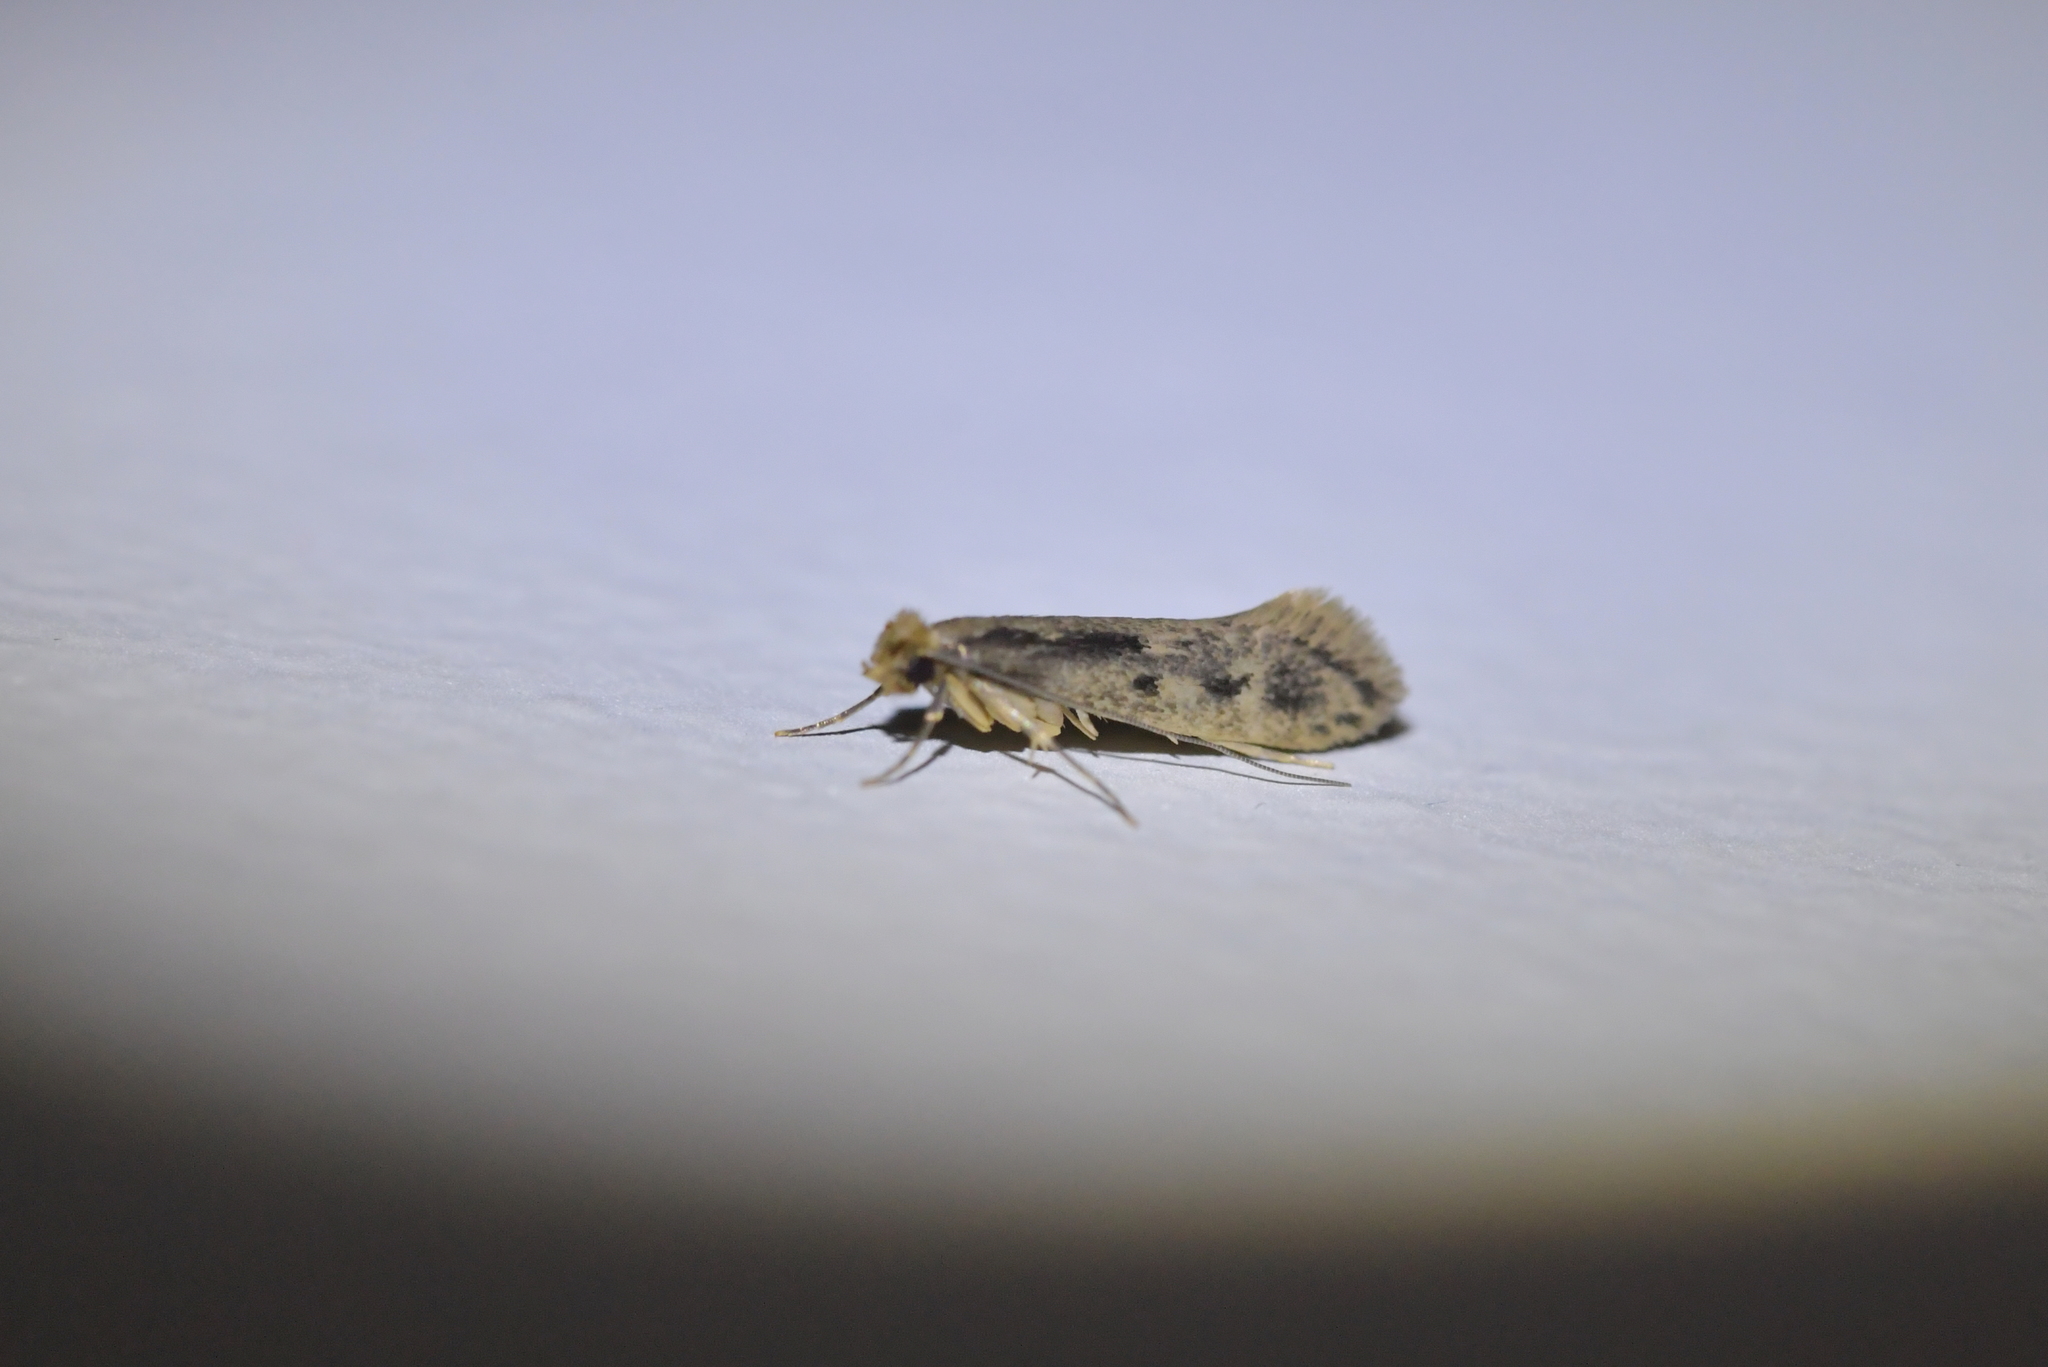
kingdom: Animalia
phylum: Arthropoda
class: Insecta
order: Lepidoptera
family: Tineidae
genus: Tinea
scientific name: Tinea pallescentella
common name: Large pale clothes moth
